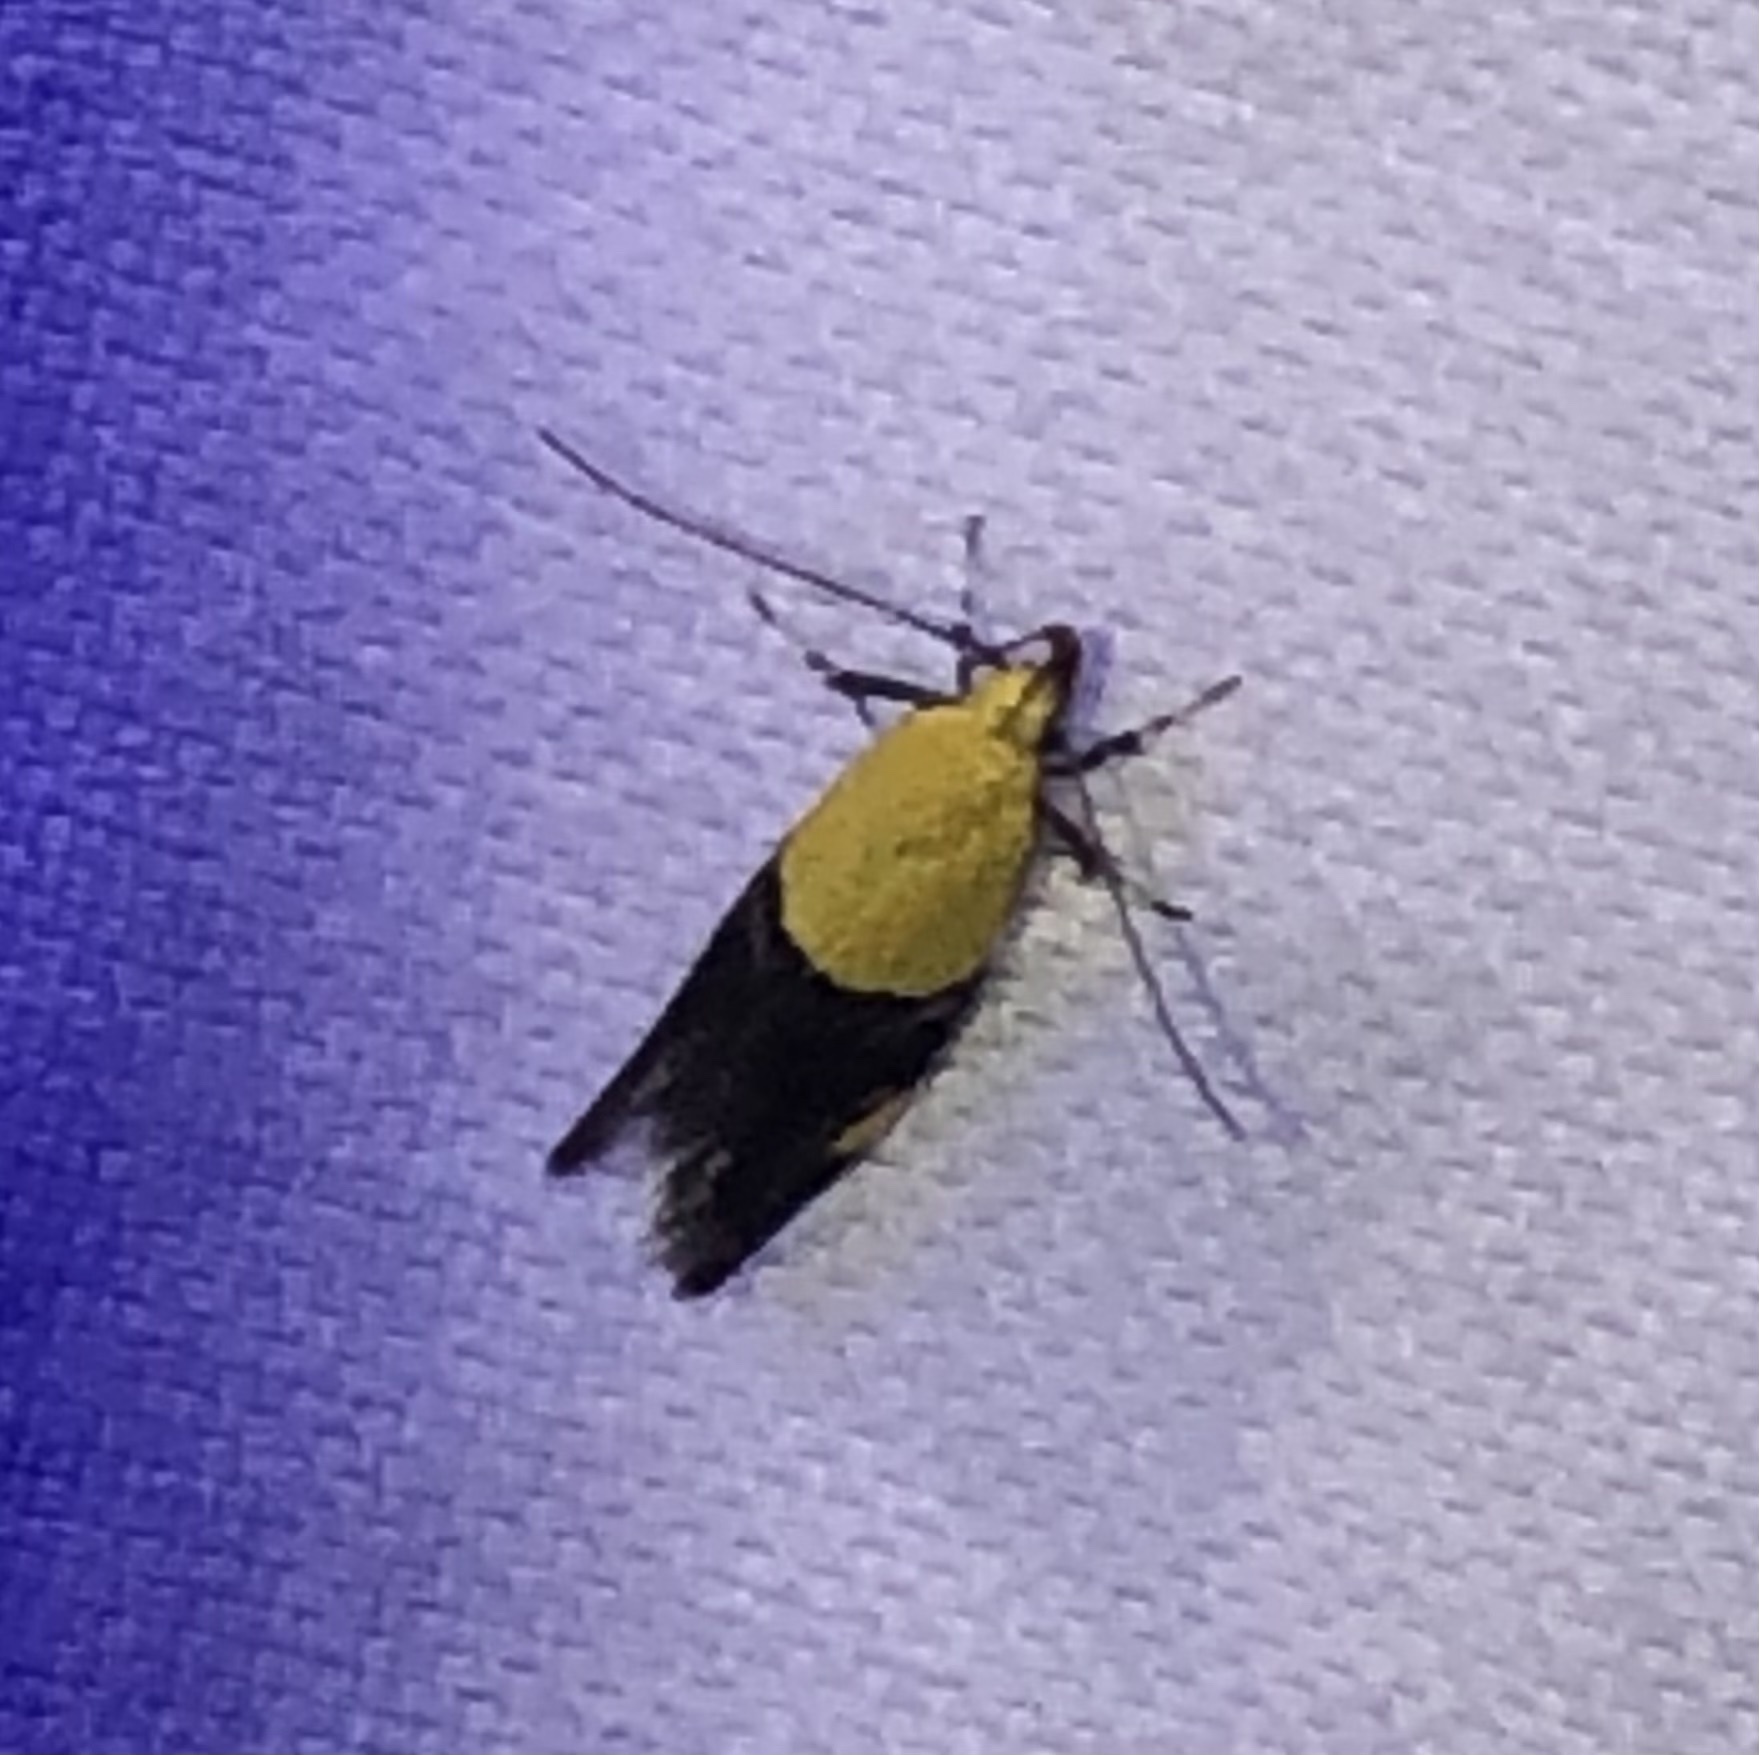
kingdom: Animalia
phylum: Arthropoda
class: Insecta
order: Lepidoptera
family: Oecophoridae
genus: Oecophora
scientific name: Oecophora bractella
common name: Gold-base tubic
